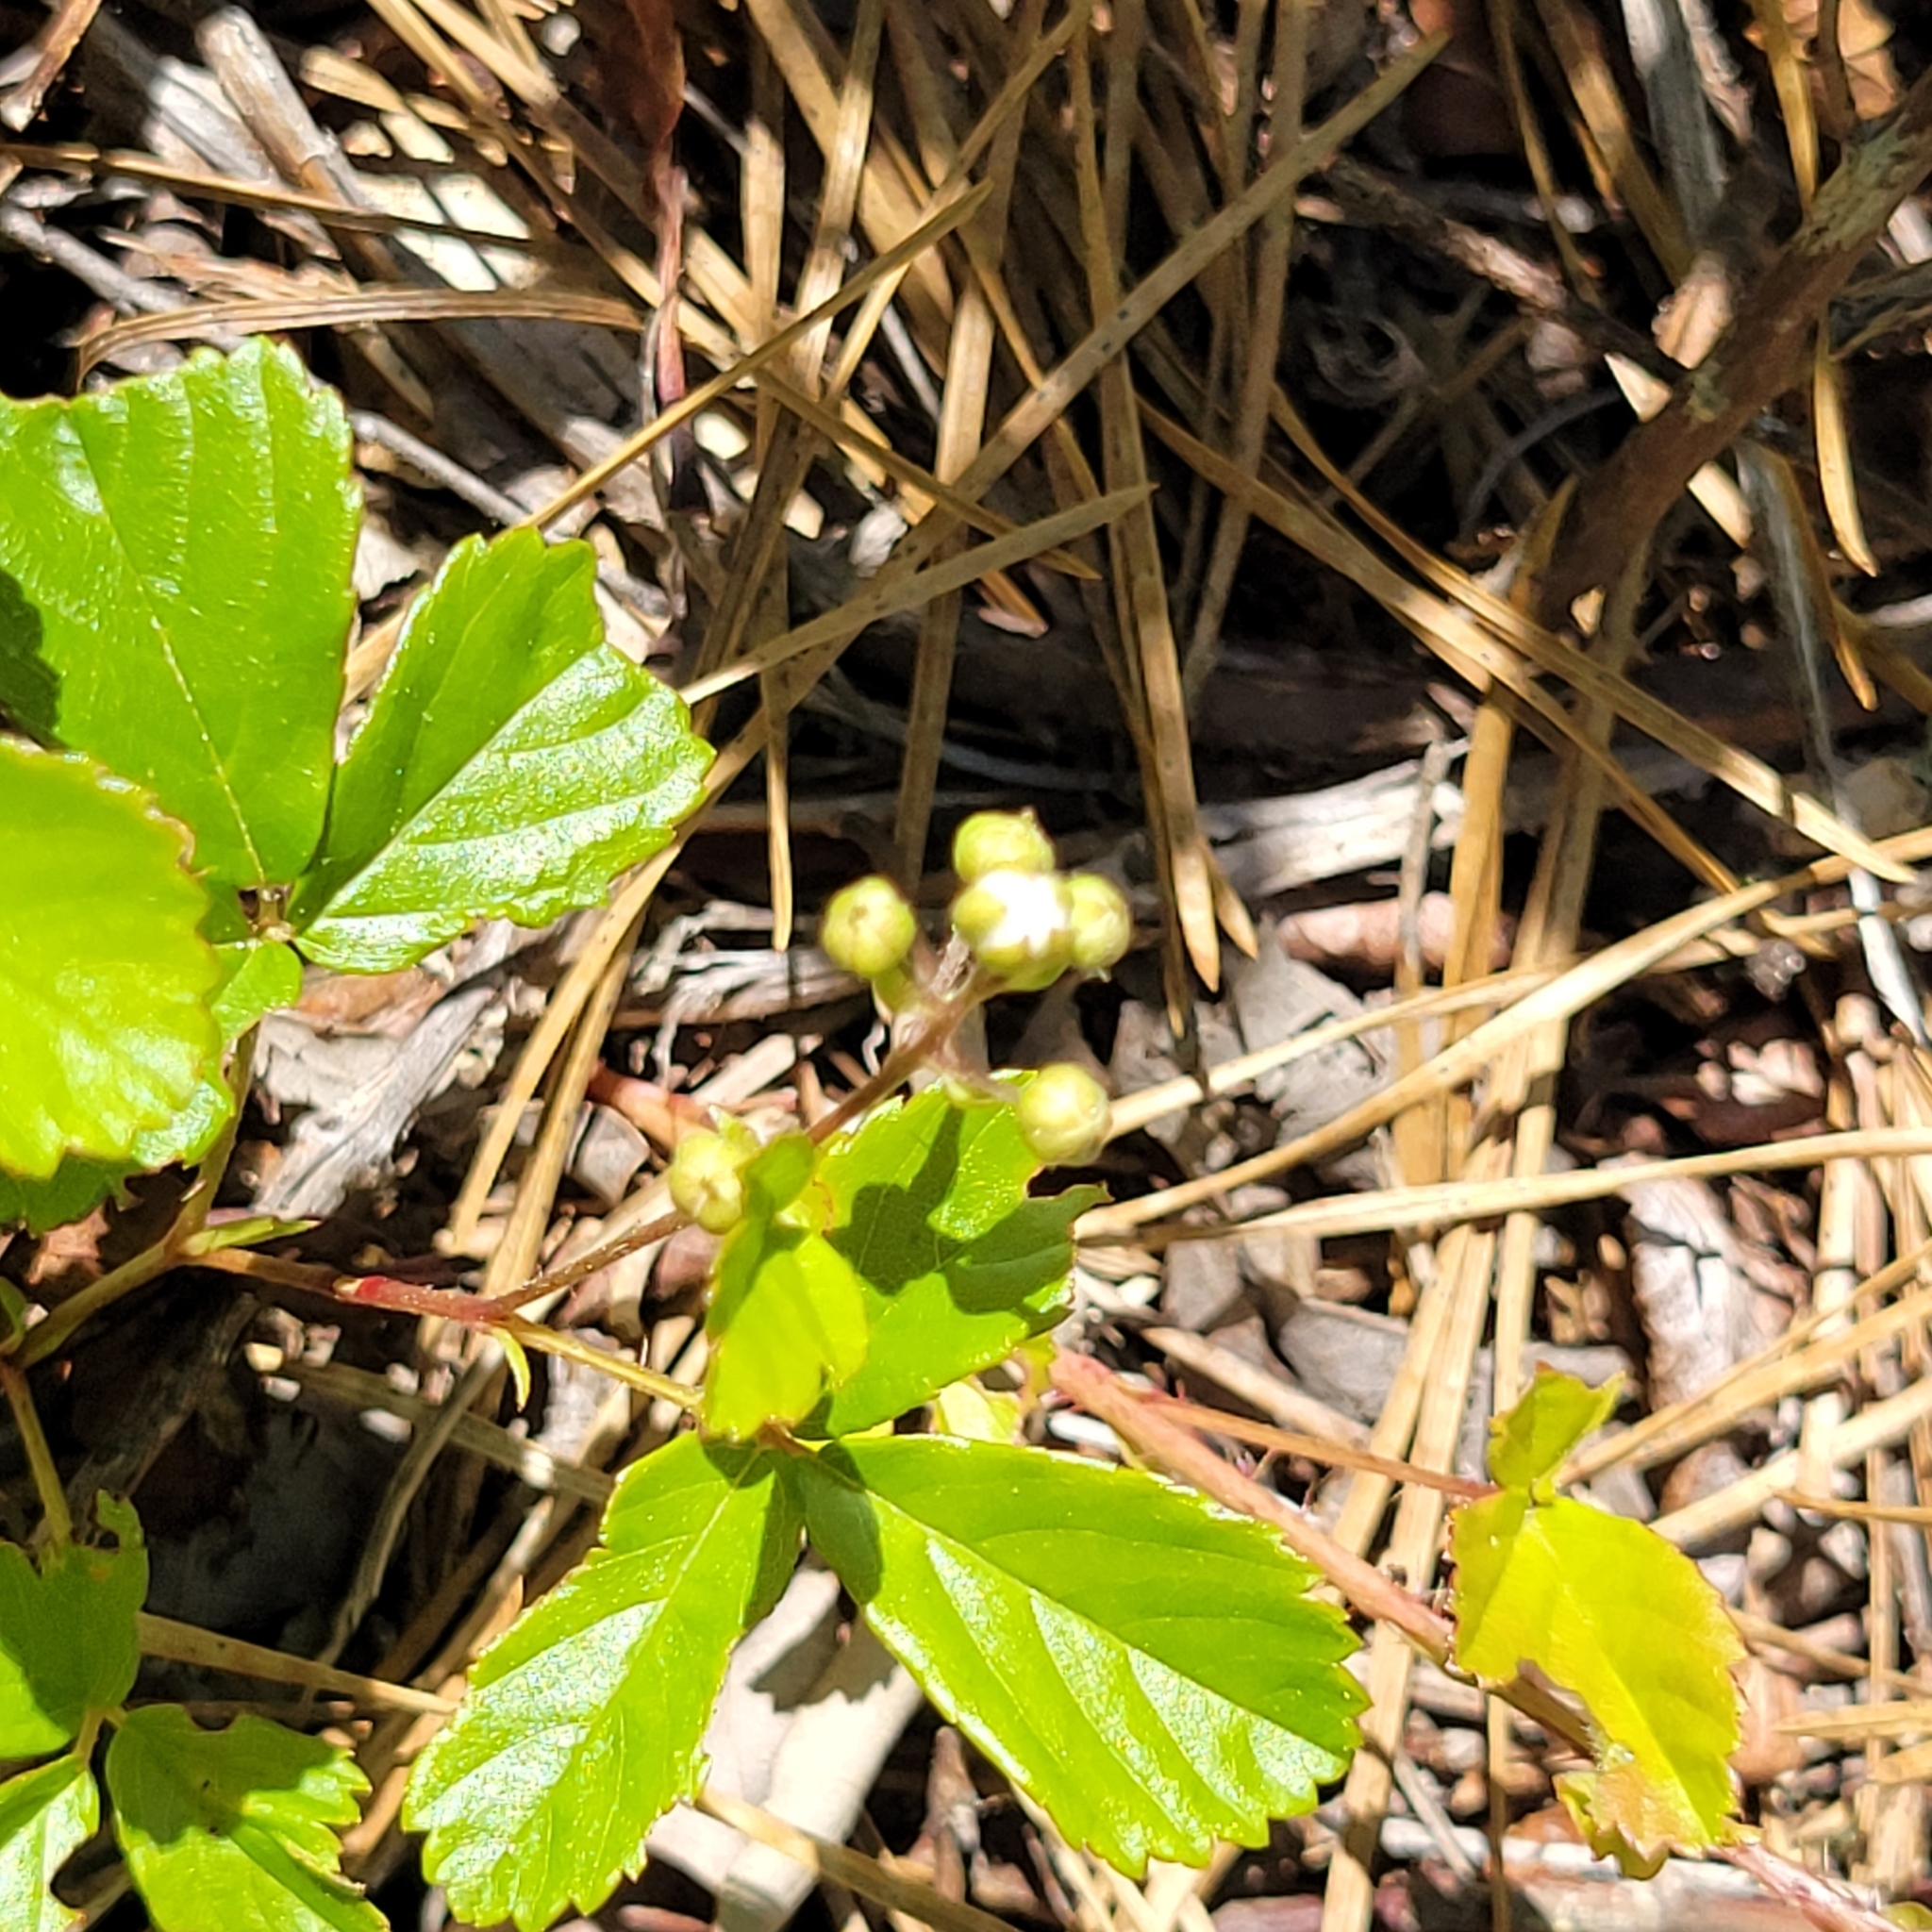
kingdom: Plantae
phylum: Tracheophyta
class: Magnoliopsida
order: Rosales
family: Rosaceae
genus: Rubus
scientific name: Rubus hispidus
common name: Running blackberry
